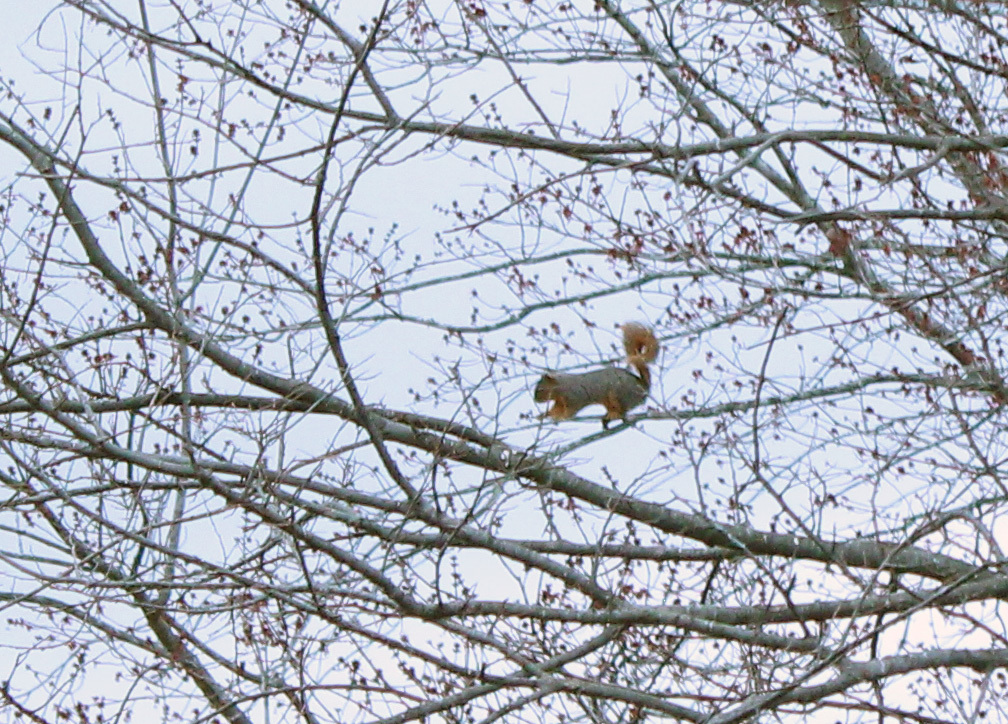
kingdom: Animalia
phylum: Chordata
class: Mammalia
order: Rodentia
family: Sciuridae
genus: Sciurus
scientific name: Sciurus niger
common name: Fox squirrel
